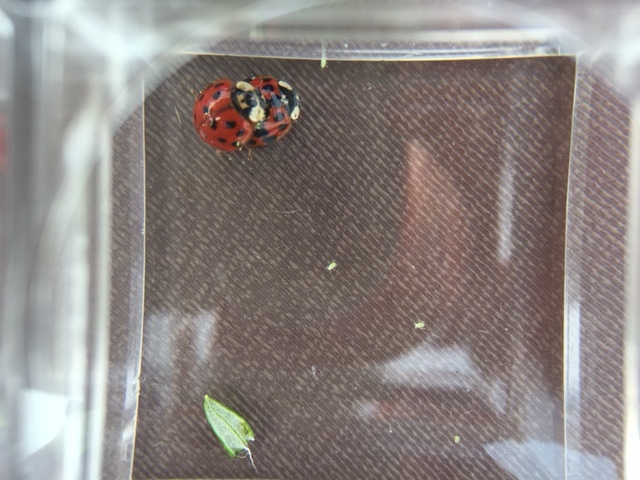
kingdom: Animalia
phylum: Arthropoda
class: Insecta
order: Coleoptera
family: Coccinellidae
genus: Harmonia
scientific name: Harmonia axyridis
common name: Harlequin ladybird
